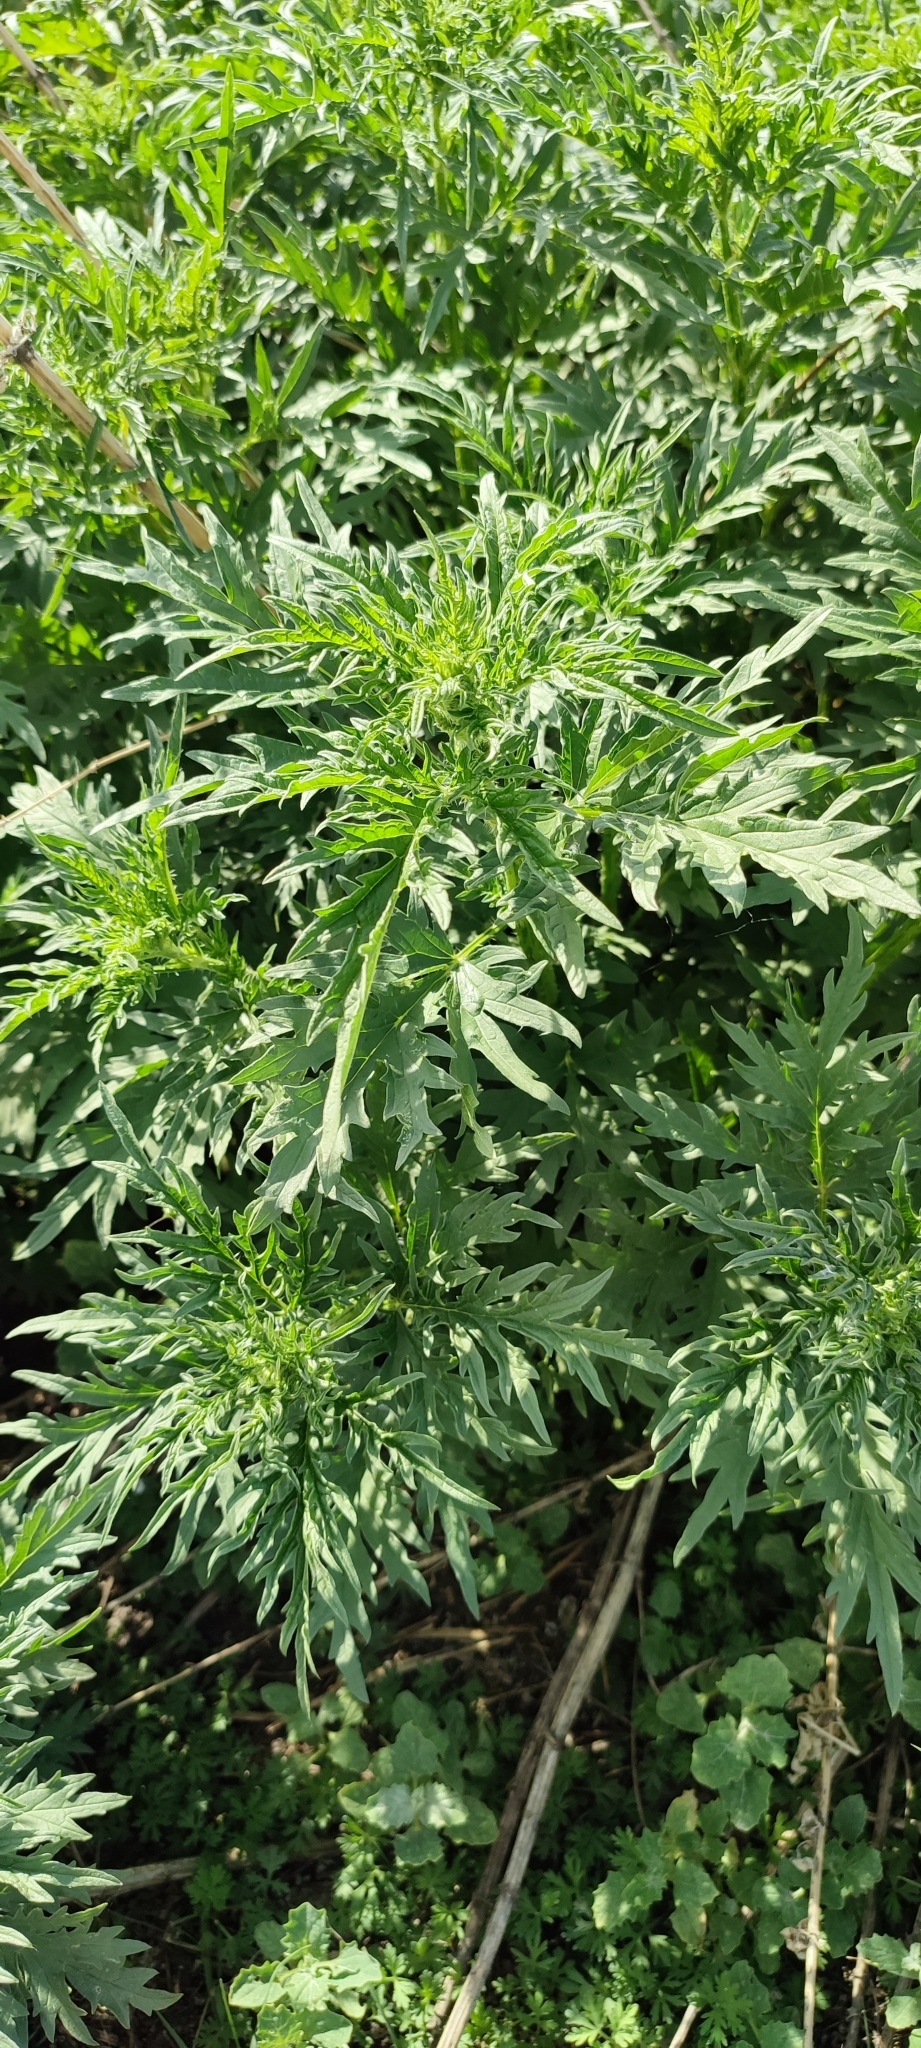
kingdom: Plantae
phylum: Tracheophyta
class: Magnoliopsida
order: Rosales
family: Urticaceae
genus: Urtica
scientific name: Urtica cannabina
